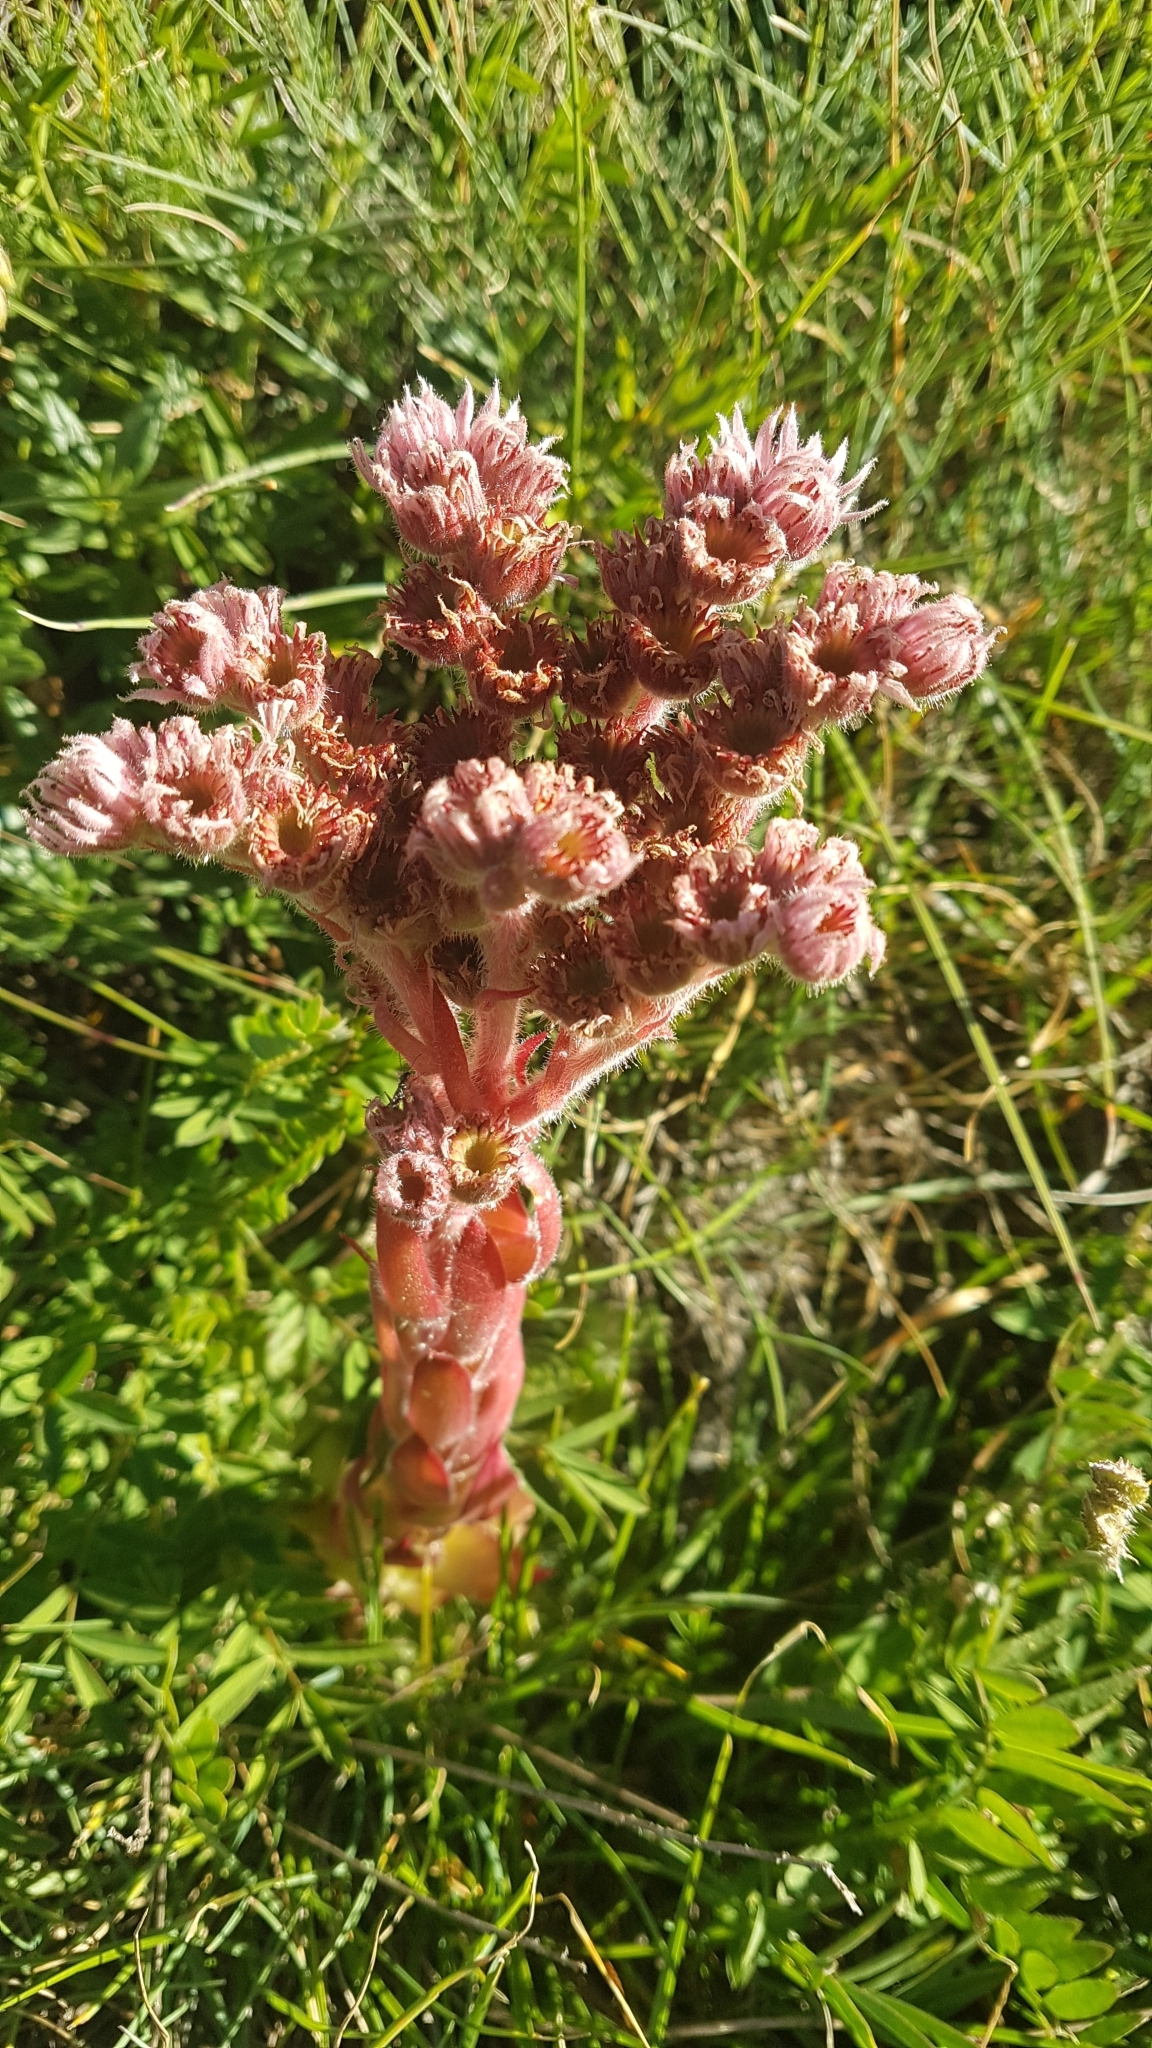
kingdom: Plantae
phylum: Tracheophyta
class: Magnoliopsida
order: Saxifragales
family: Crassulaceae
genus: Sempervivum
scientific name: Sempervivum tectorum
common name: House-leek
